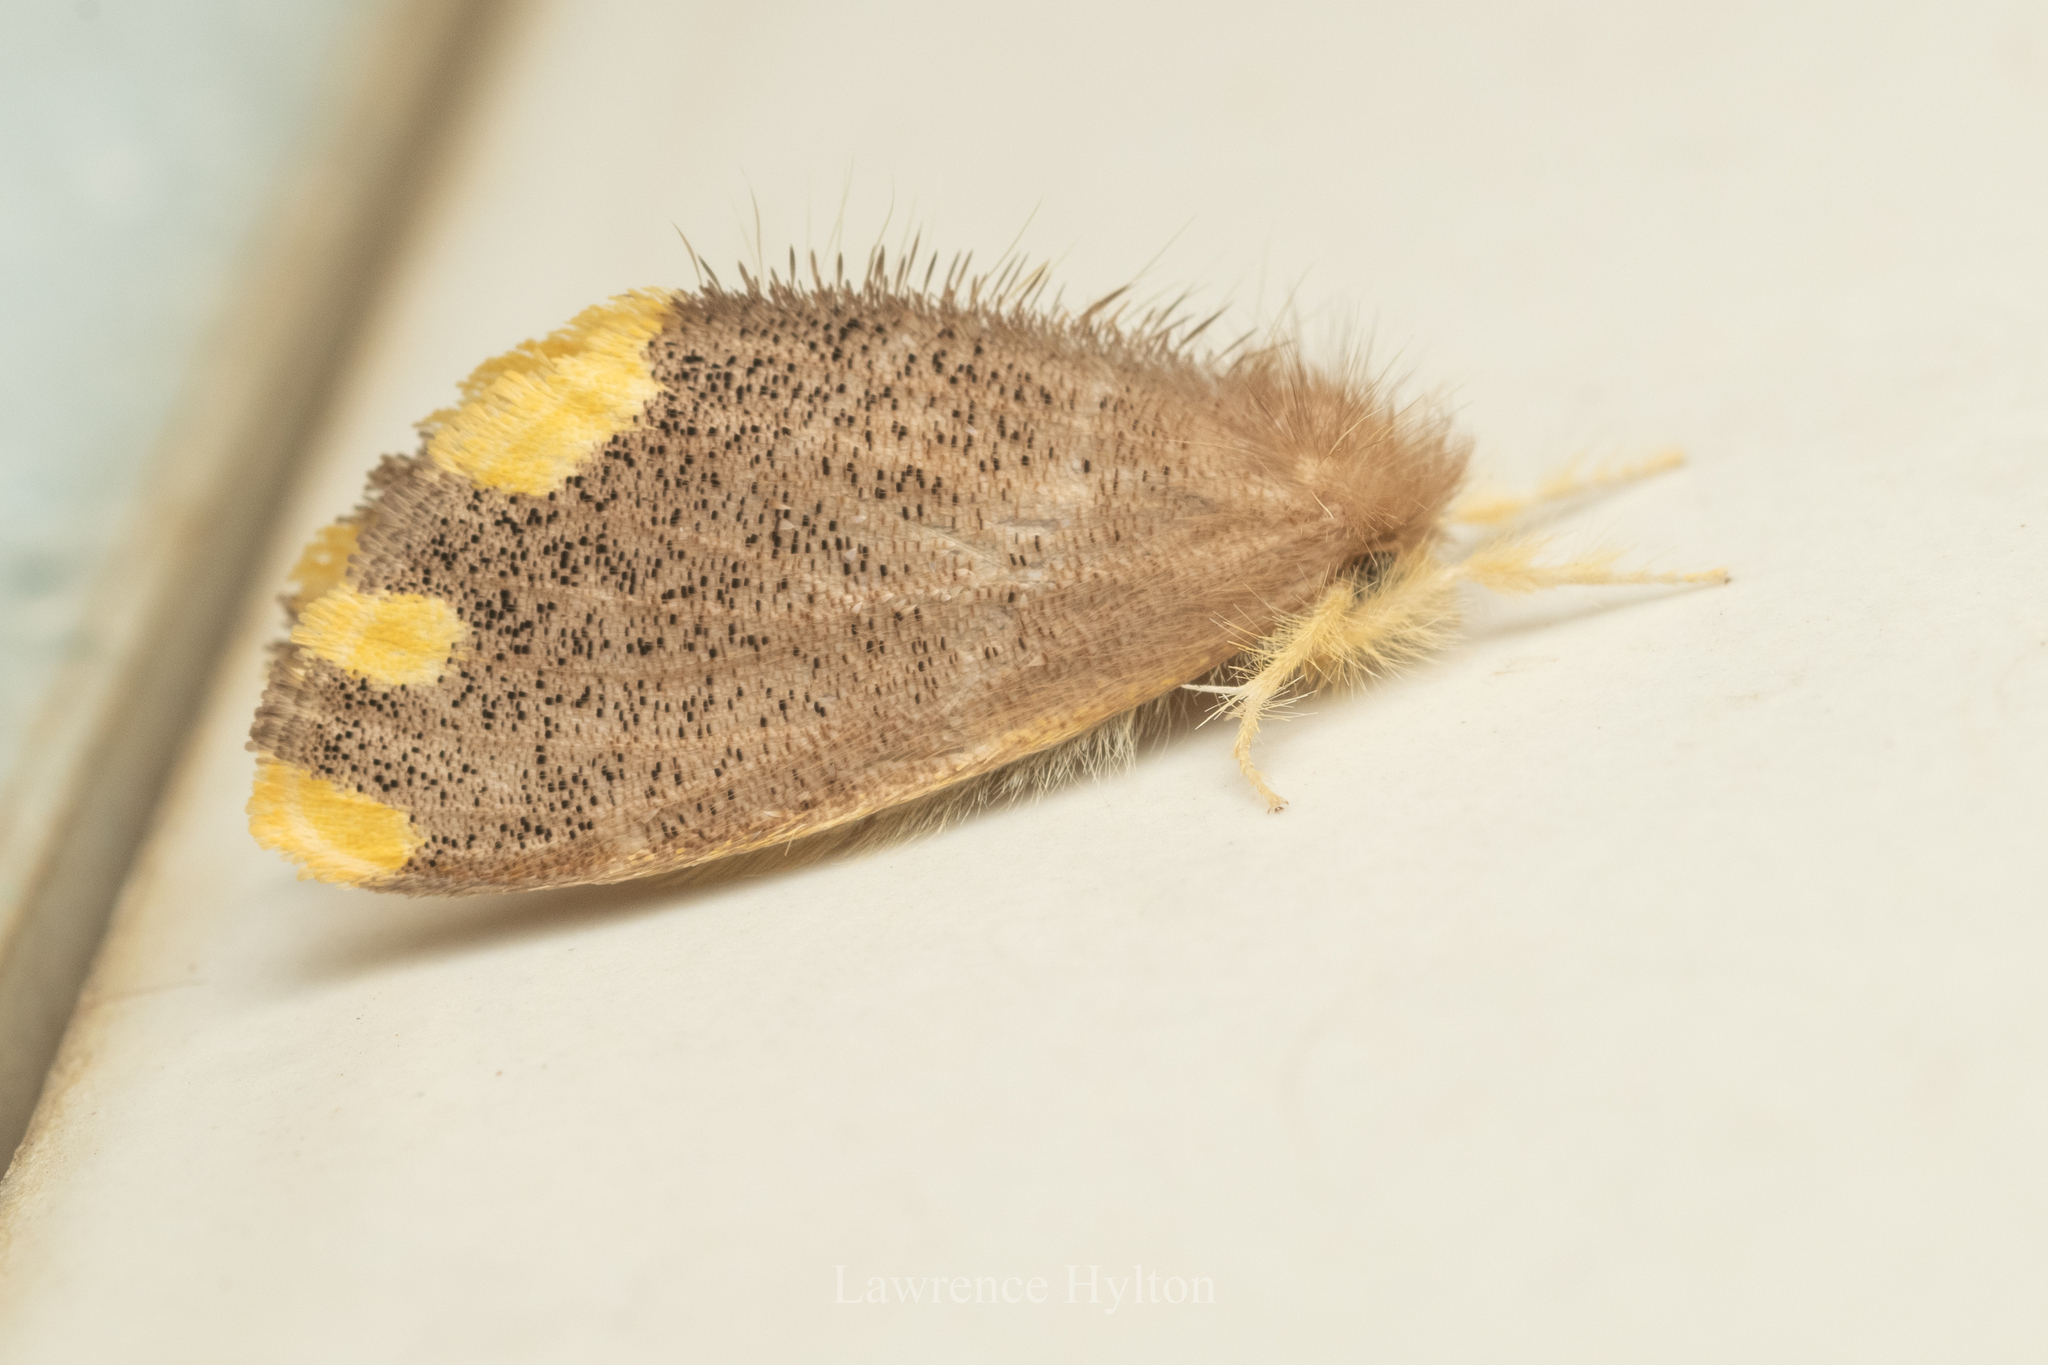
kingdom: Animalia
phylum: Arthropoda
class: Insecta
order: Lepidoptera
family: Erebidae
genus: Orvasca
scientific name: Orvasca subnotata
